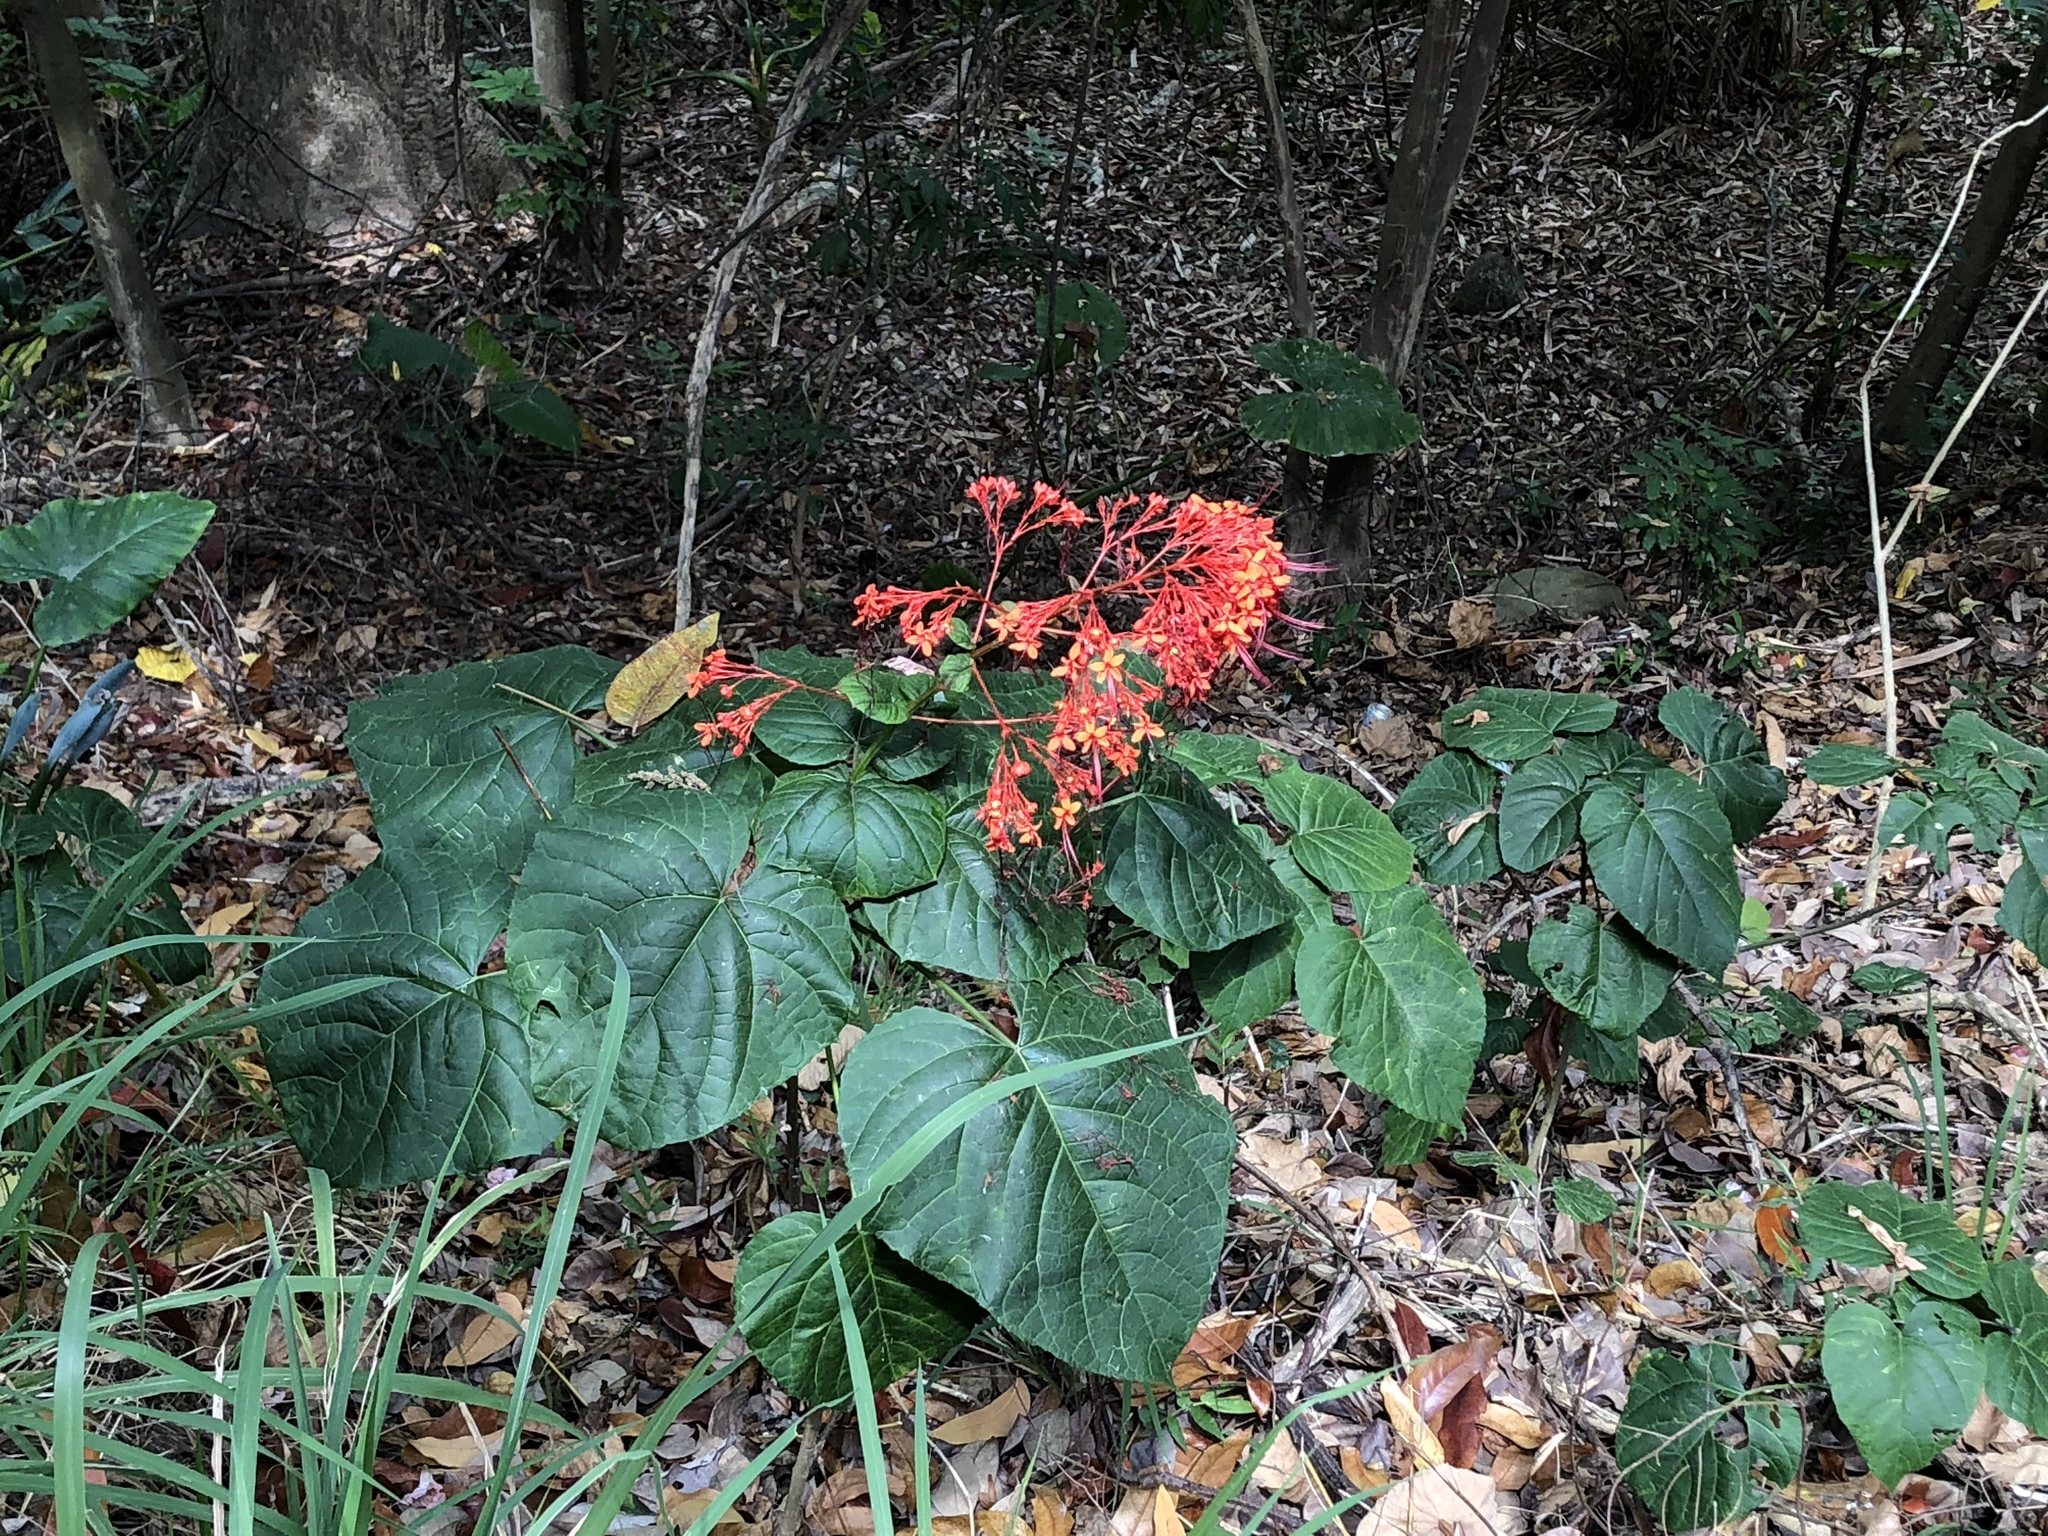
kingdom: Plantae
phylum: Tracheophyta
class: Magnoliopsida
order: Lamiales
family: Lamiaceae
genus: Clerodendrum
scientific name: Clerodendrum japonicum
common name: Japanese glorybower
